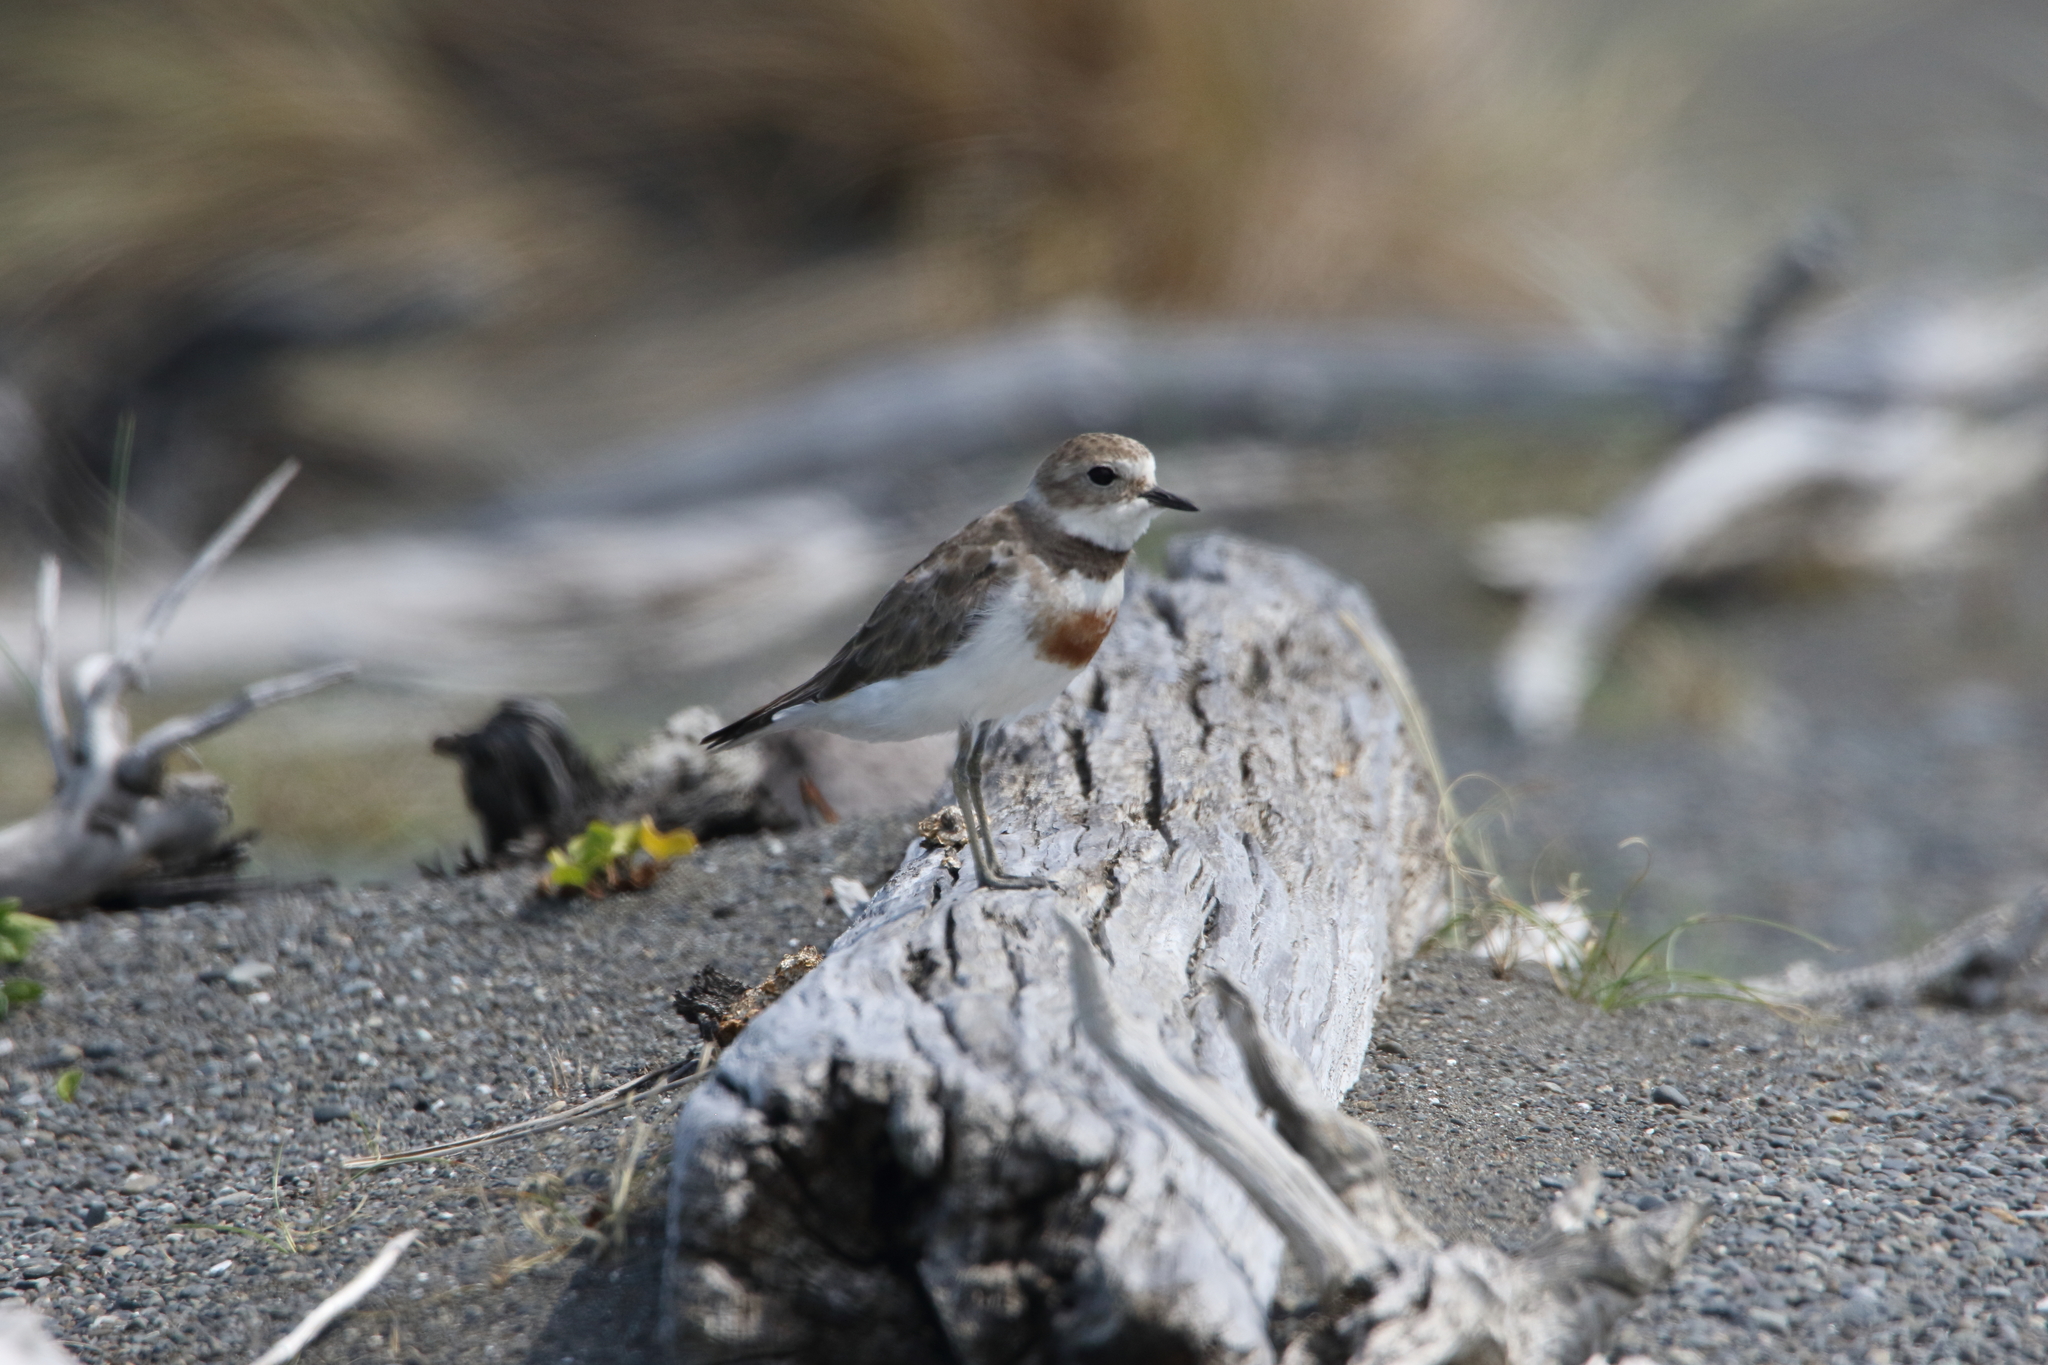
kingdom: Animalia
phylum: Chordata
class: Aves
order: Charadriiformes
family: Charadriidae
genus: Anarhynchus
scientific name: Anarhynchus
